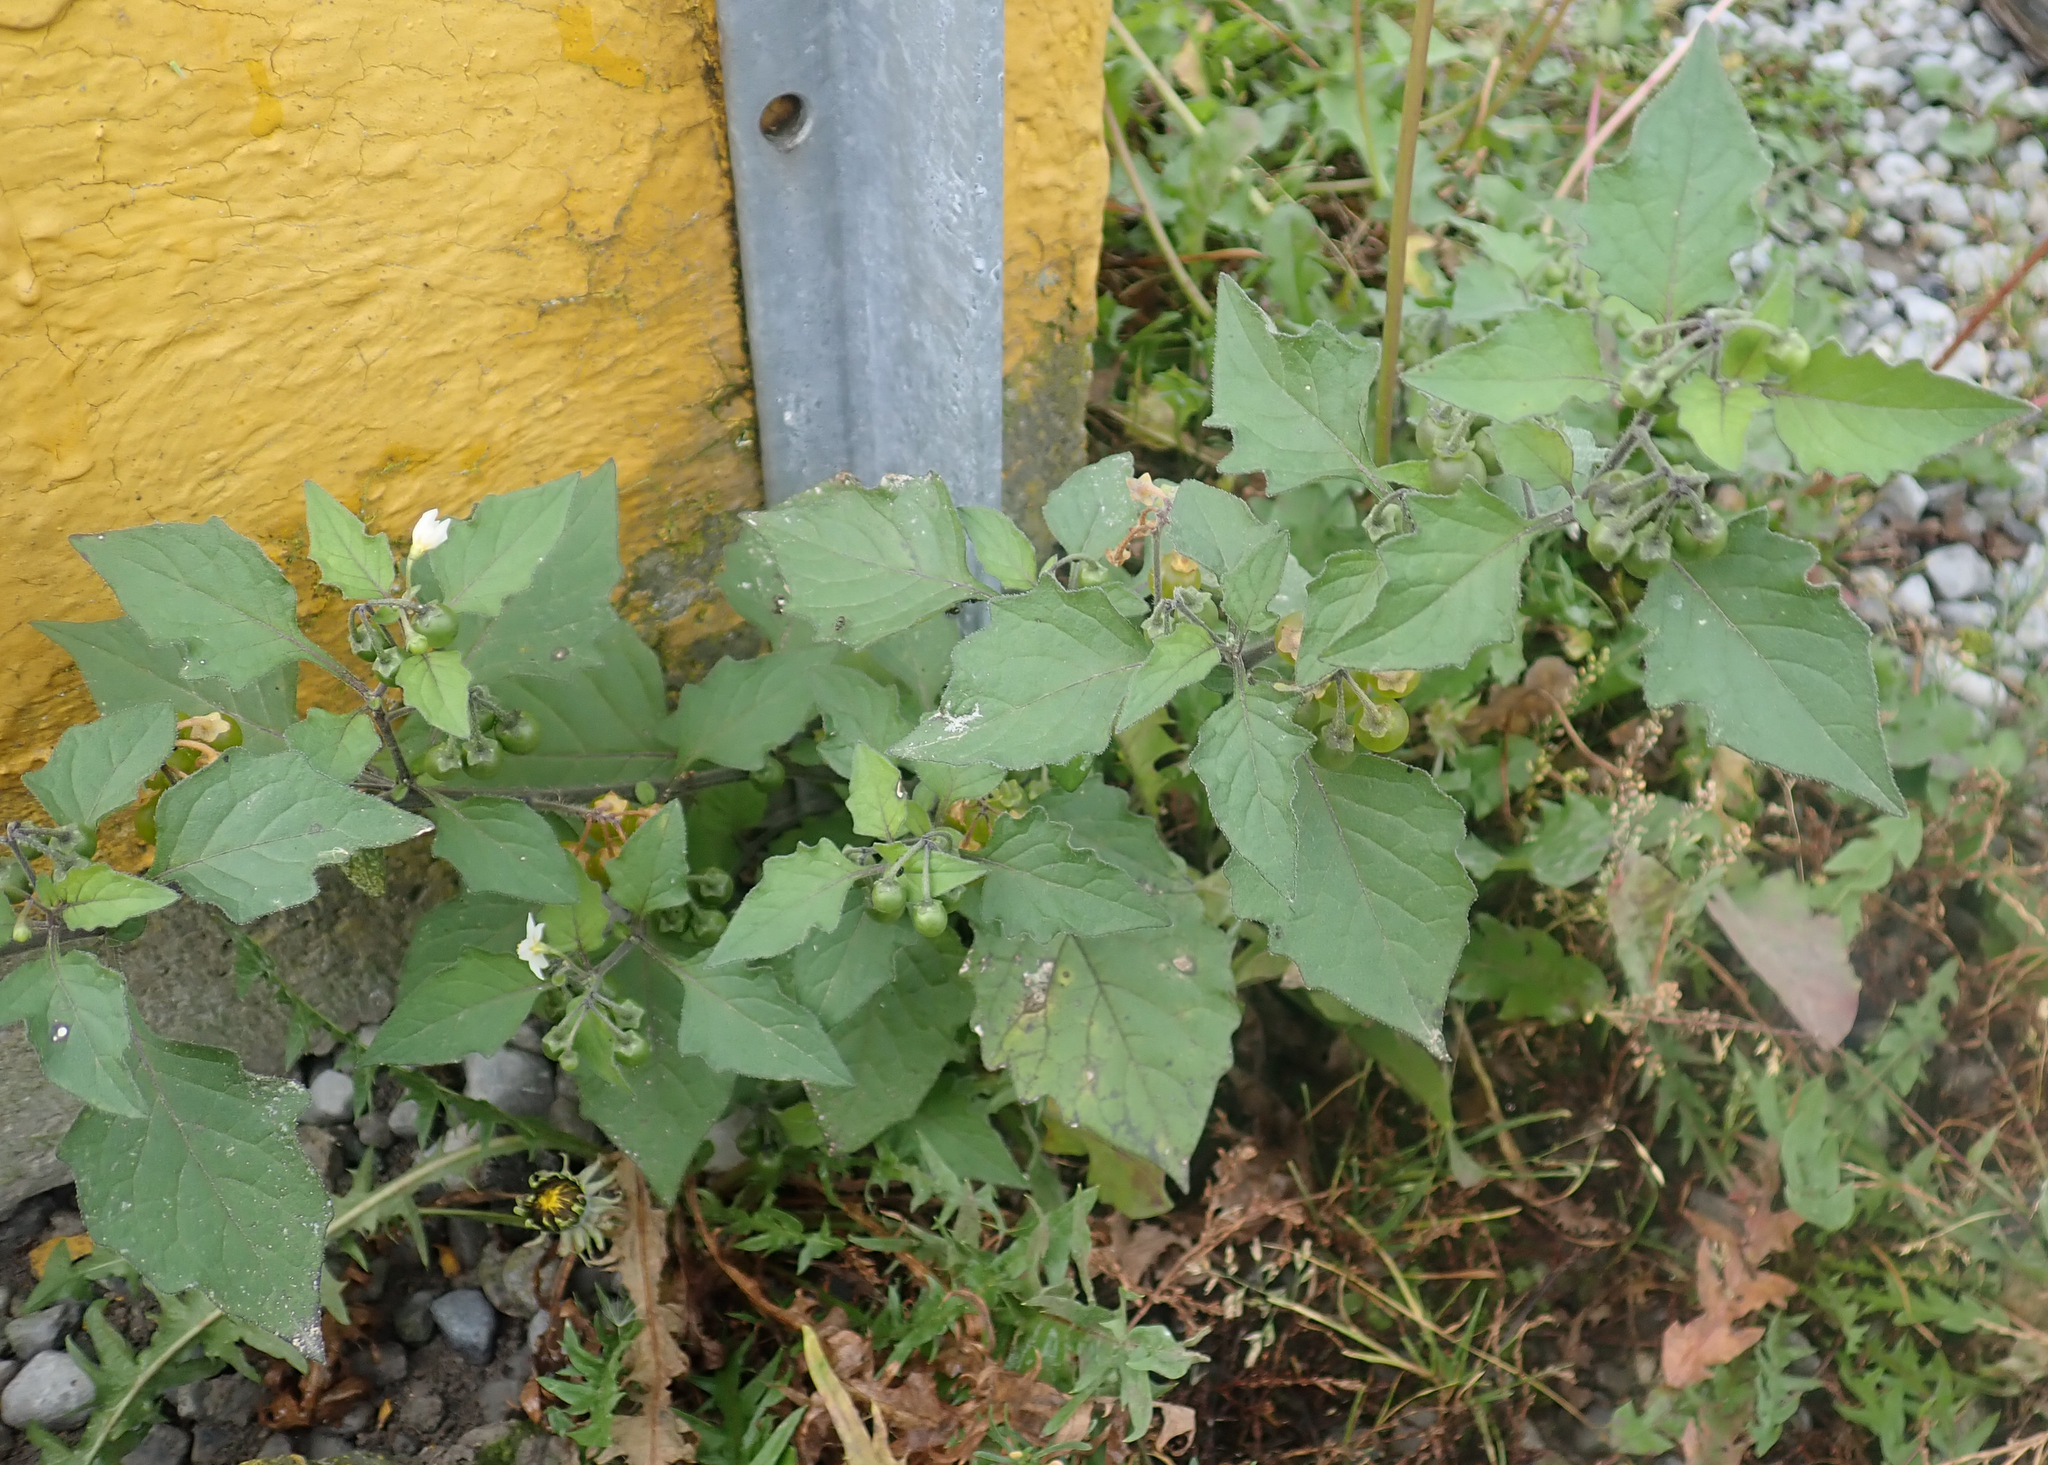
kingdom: Plantae
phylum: Tracheophyta
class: Magnoliopsida
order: Solanales
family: Solanaceae
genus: Solanum
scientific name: Solanum nigrum
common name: Black nightshade
